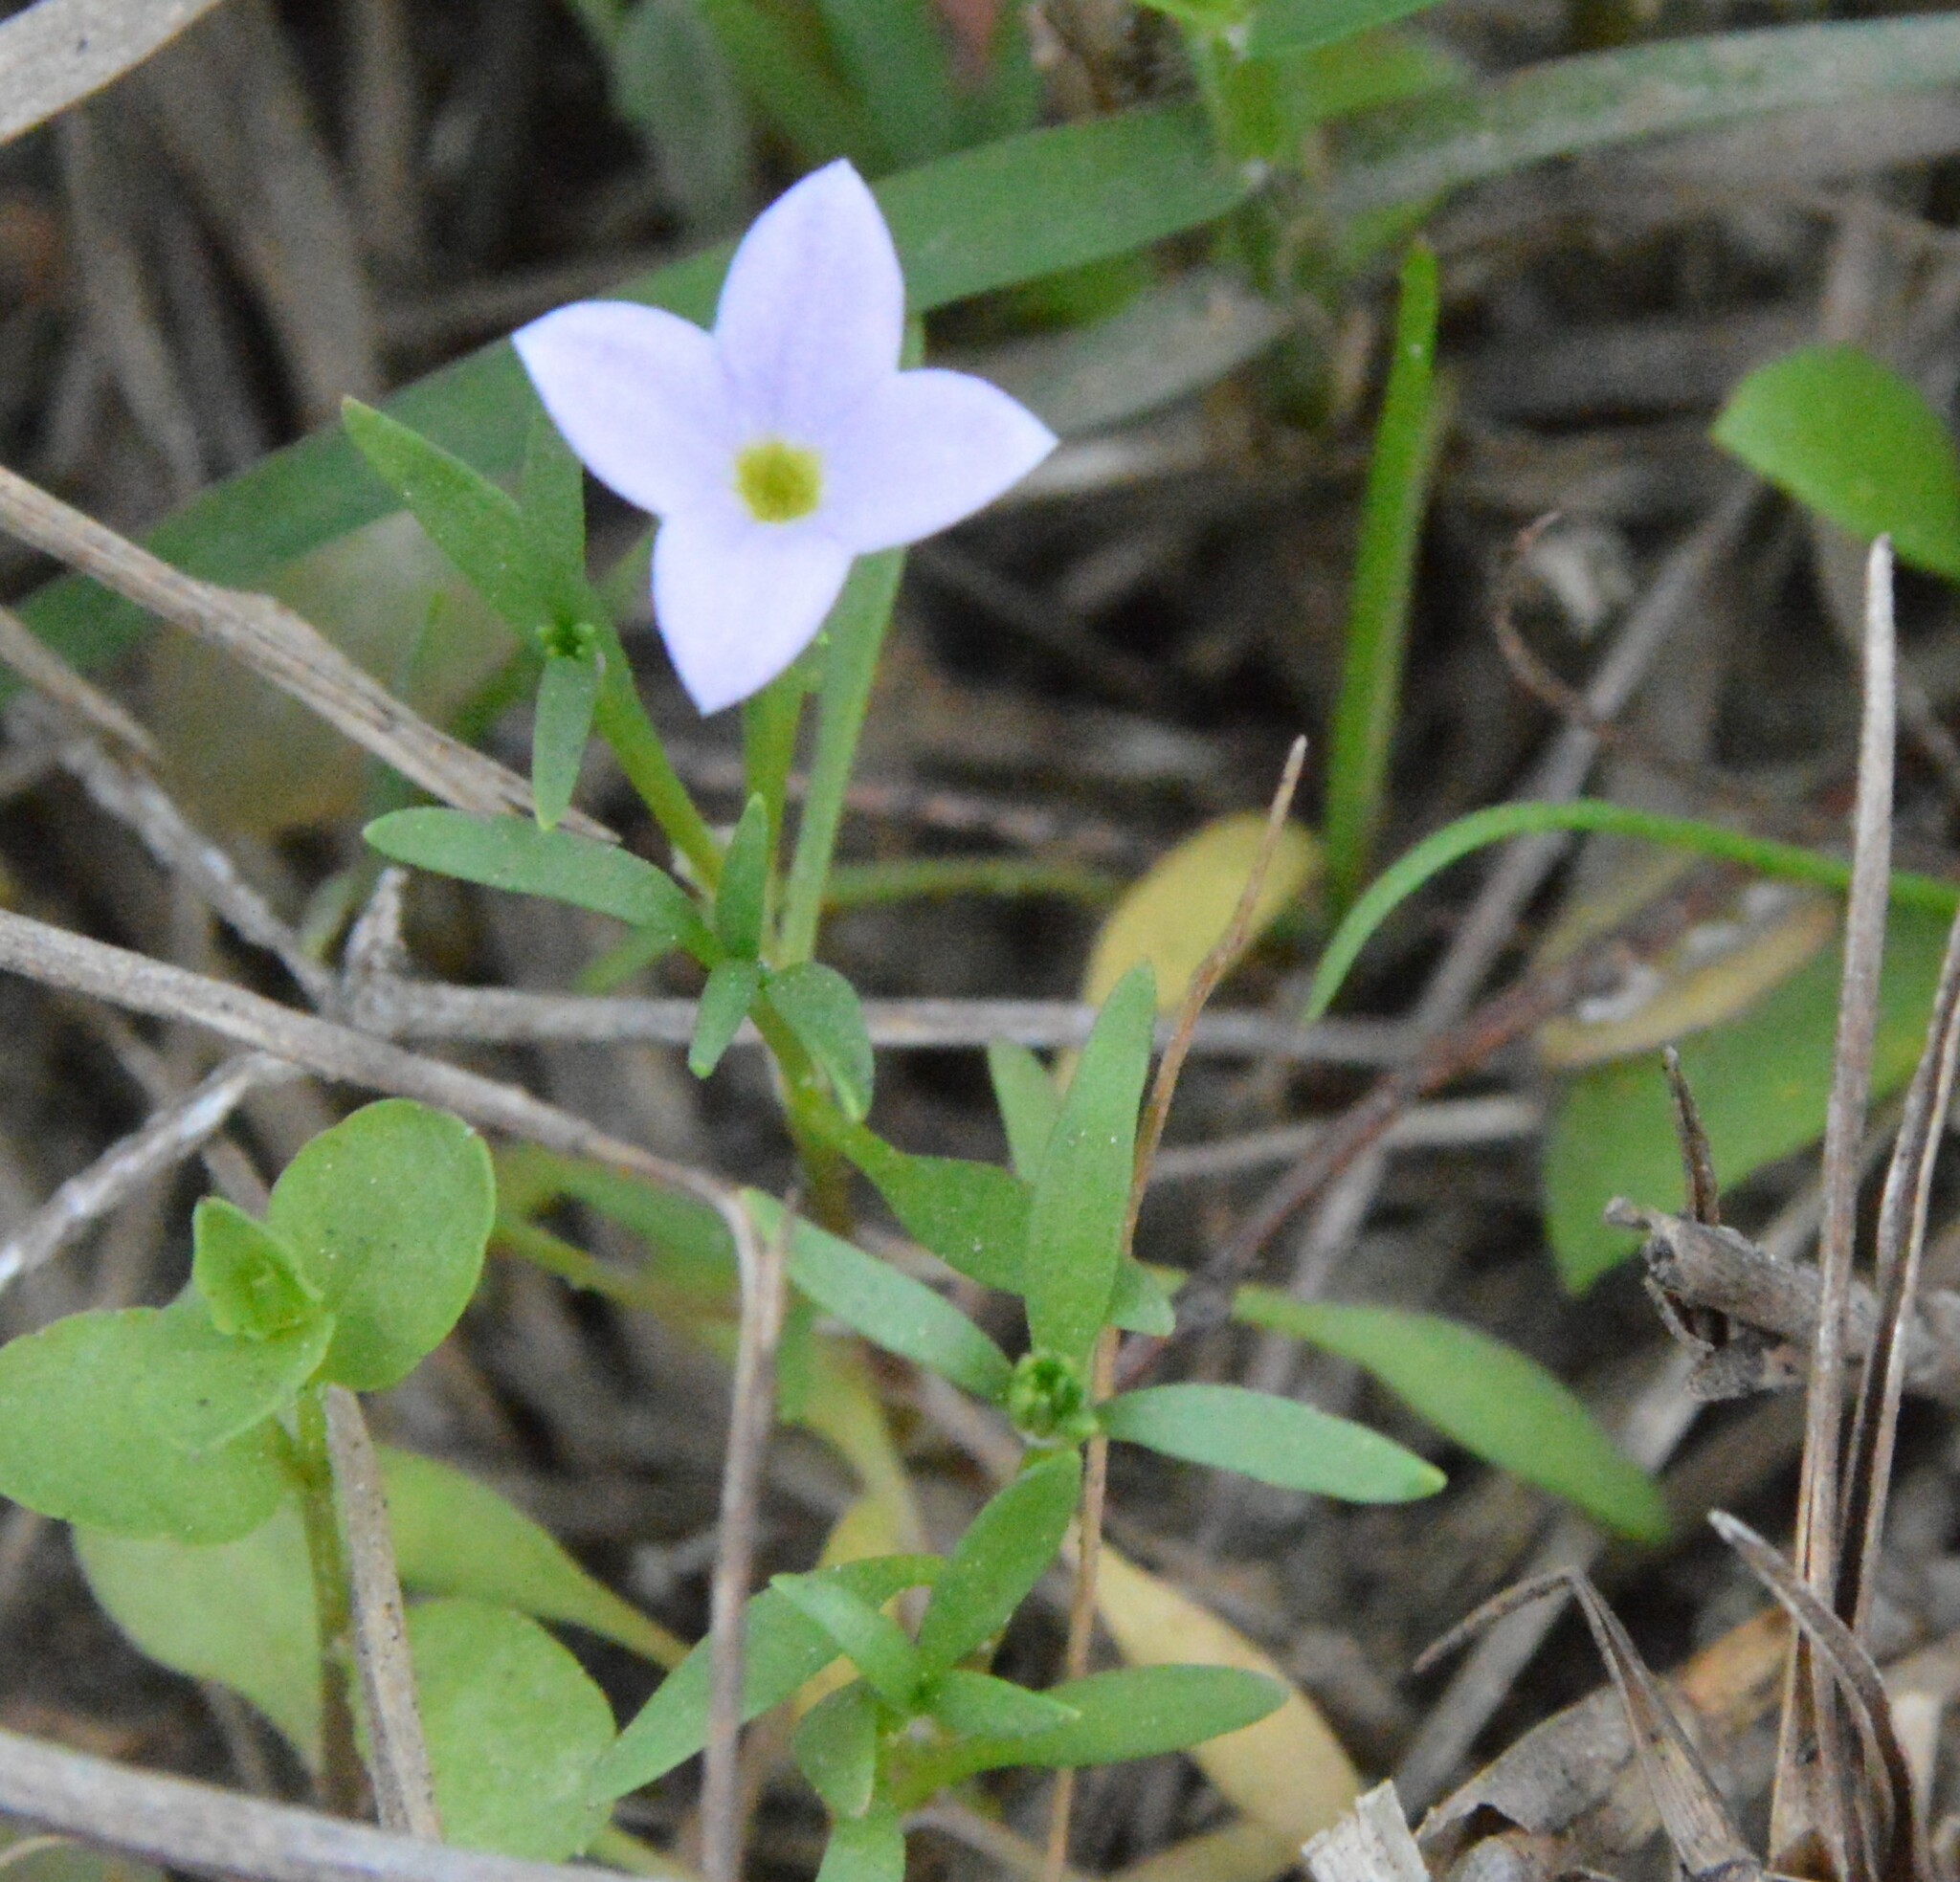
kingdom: Plantae
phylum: Tracheophyta
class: Magnoliopsida
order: Gentianales
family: Rubiaceae
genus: Houstonia
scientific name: Houstonia rosea
